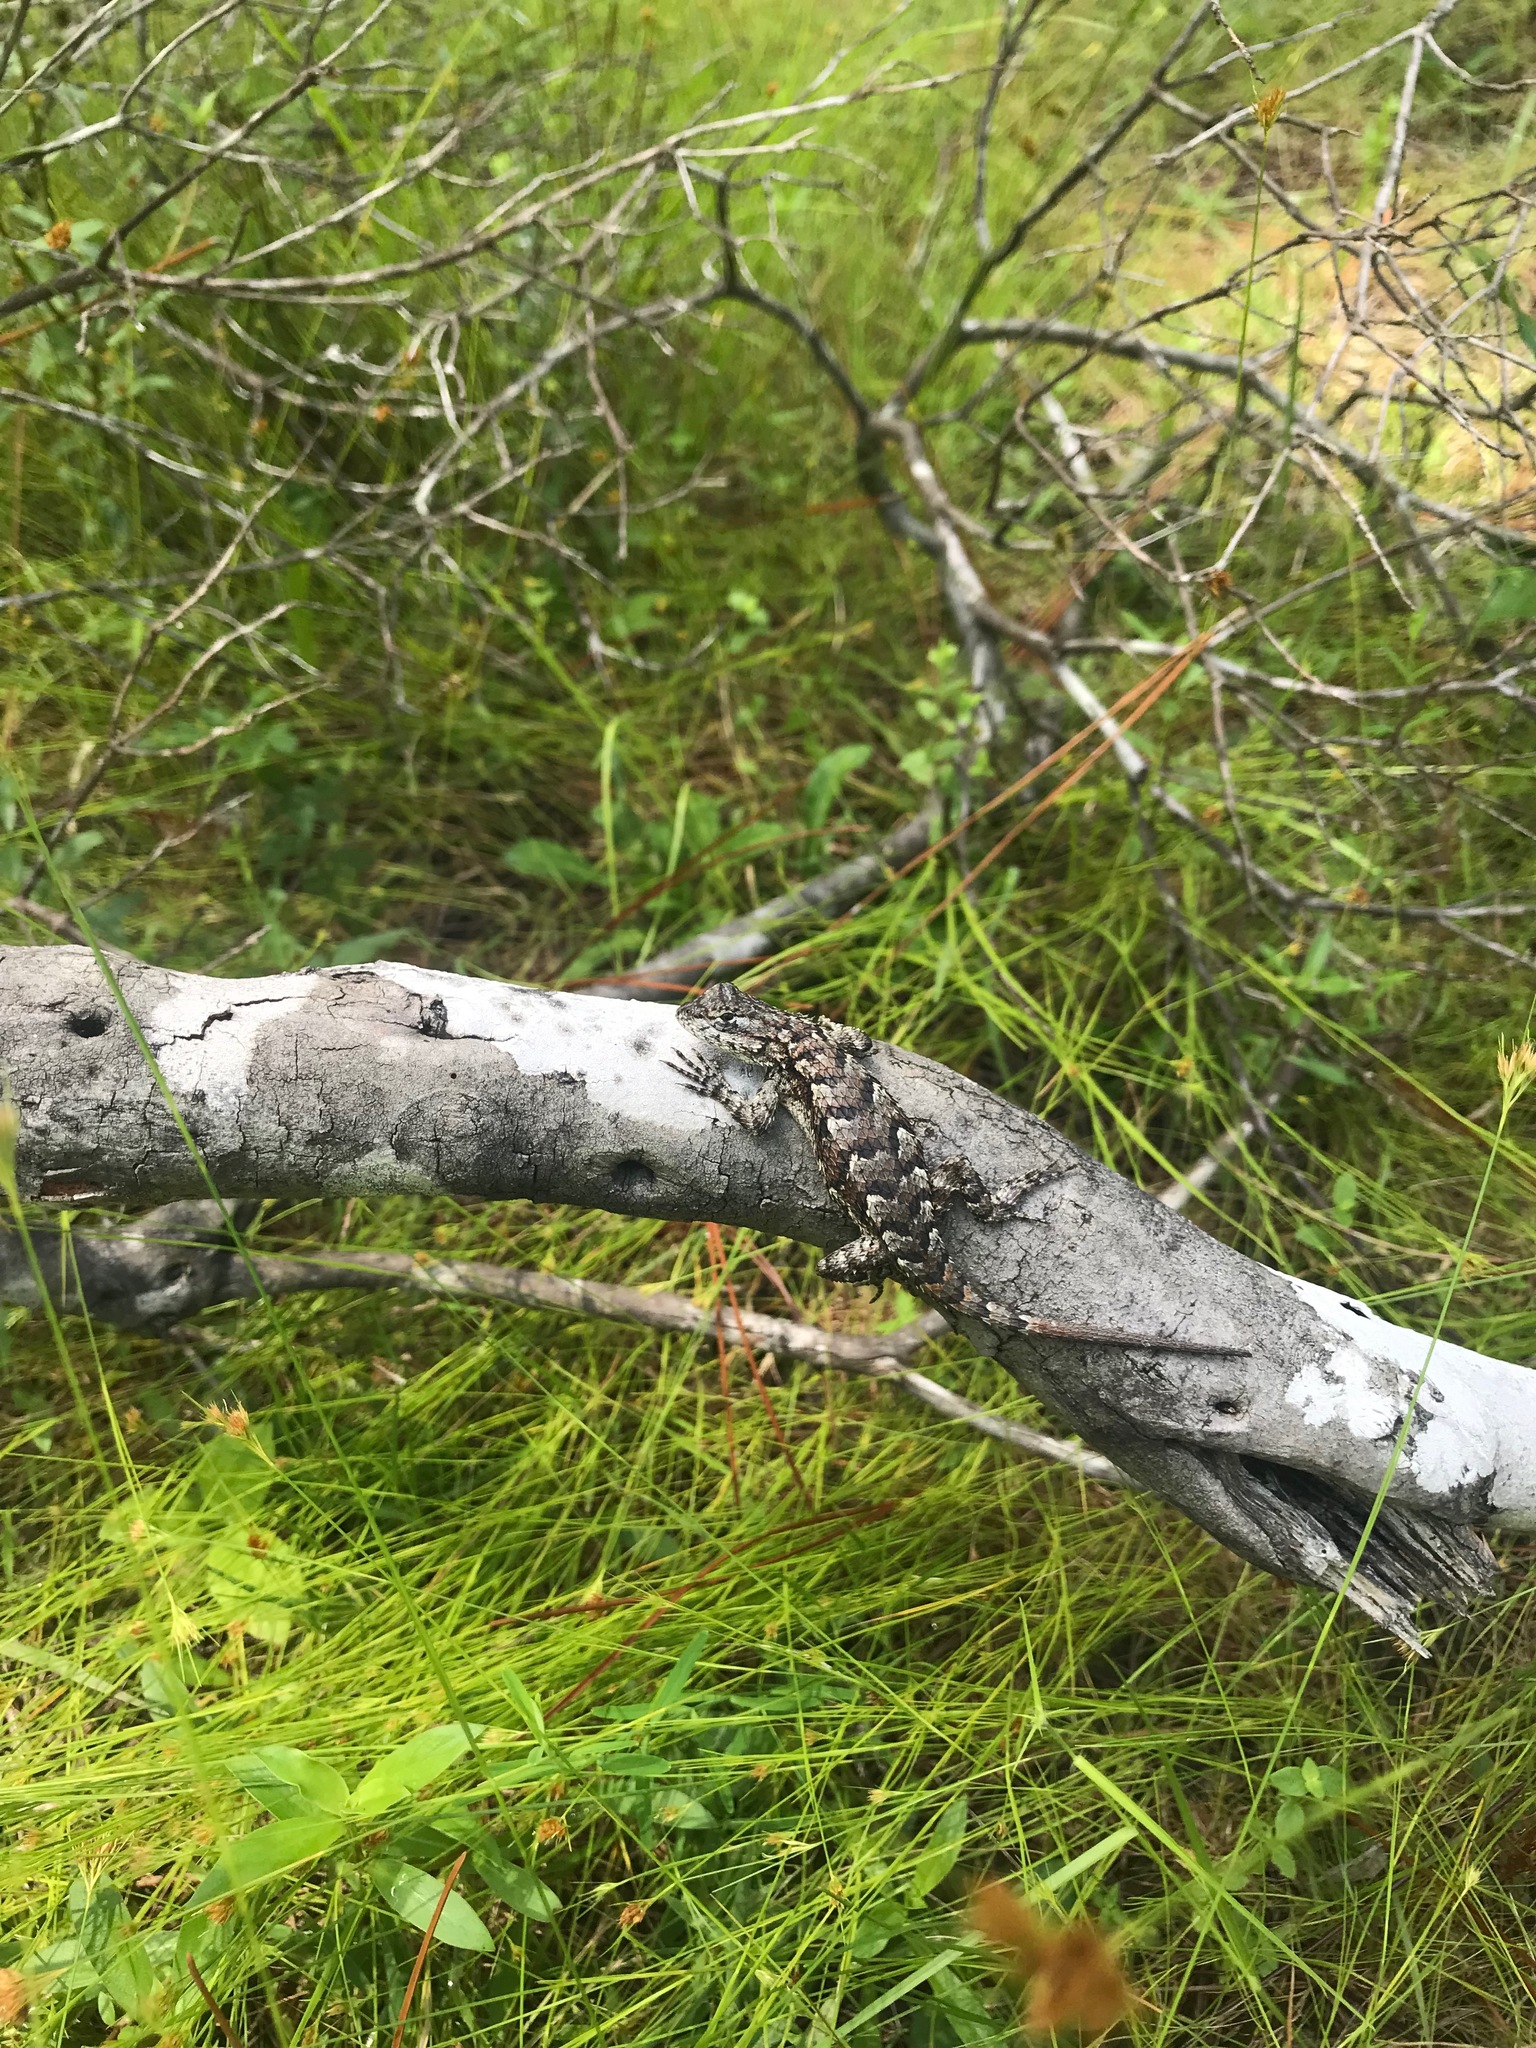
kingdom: Animalia
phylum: Chordata
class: Squamata
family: Phrynosomatidae
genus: Sceloporus
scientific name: Sceloporus consobrinus
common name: Southern prairie lizard
